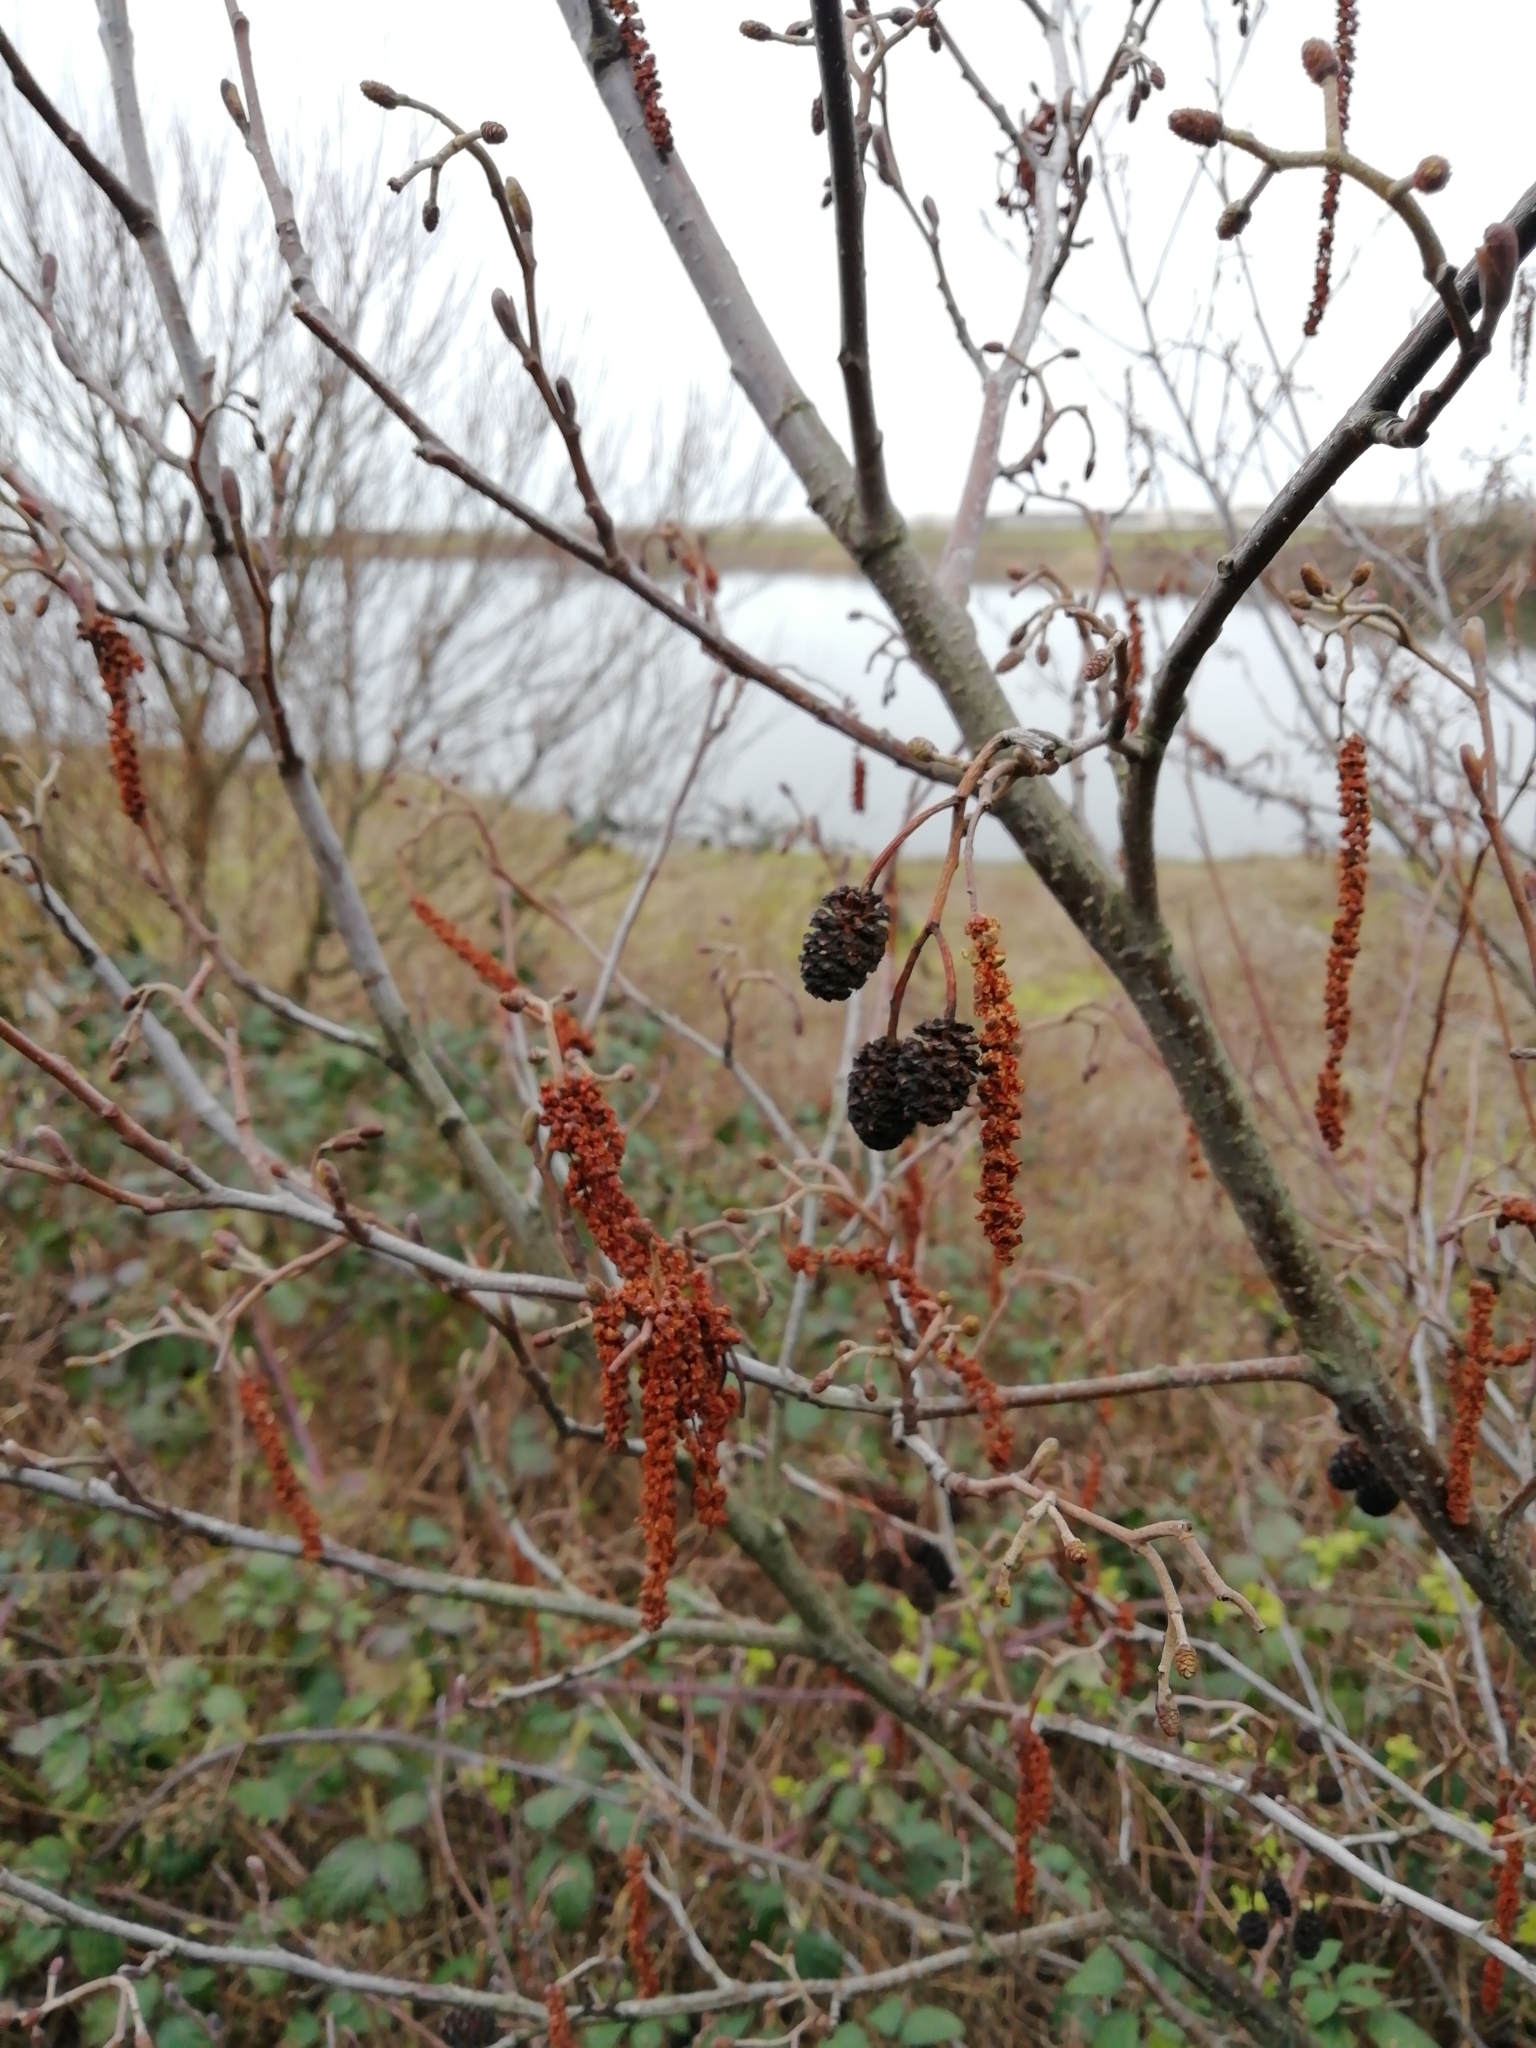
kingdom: Plantae
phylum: Tracheophyta
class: Magnoliopsida
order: Fagales
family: Betulaceae
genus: Alnus
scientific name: Alnus glutinosa
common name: Black alder
